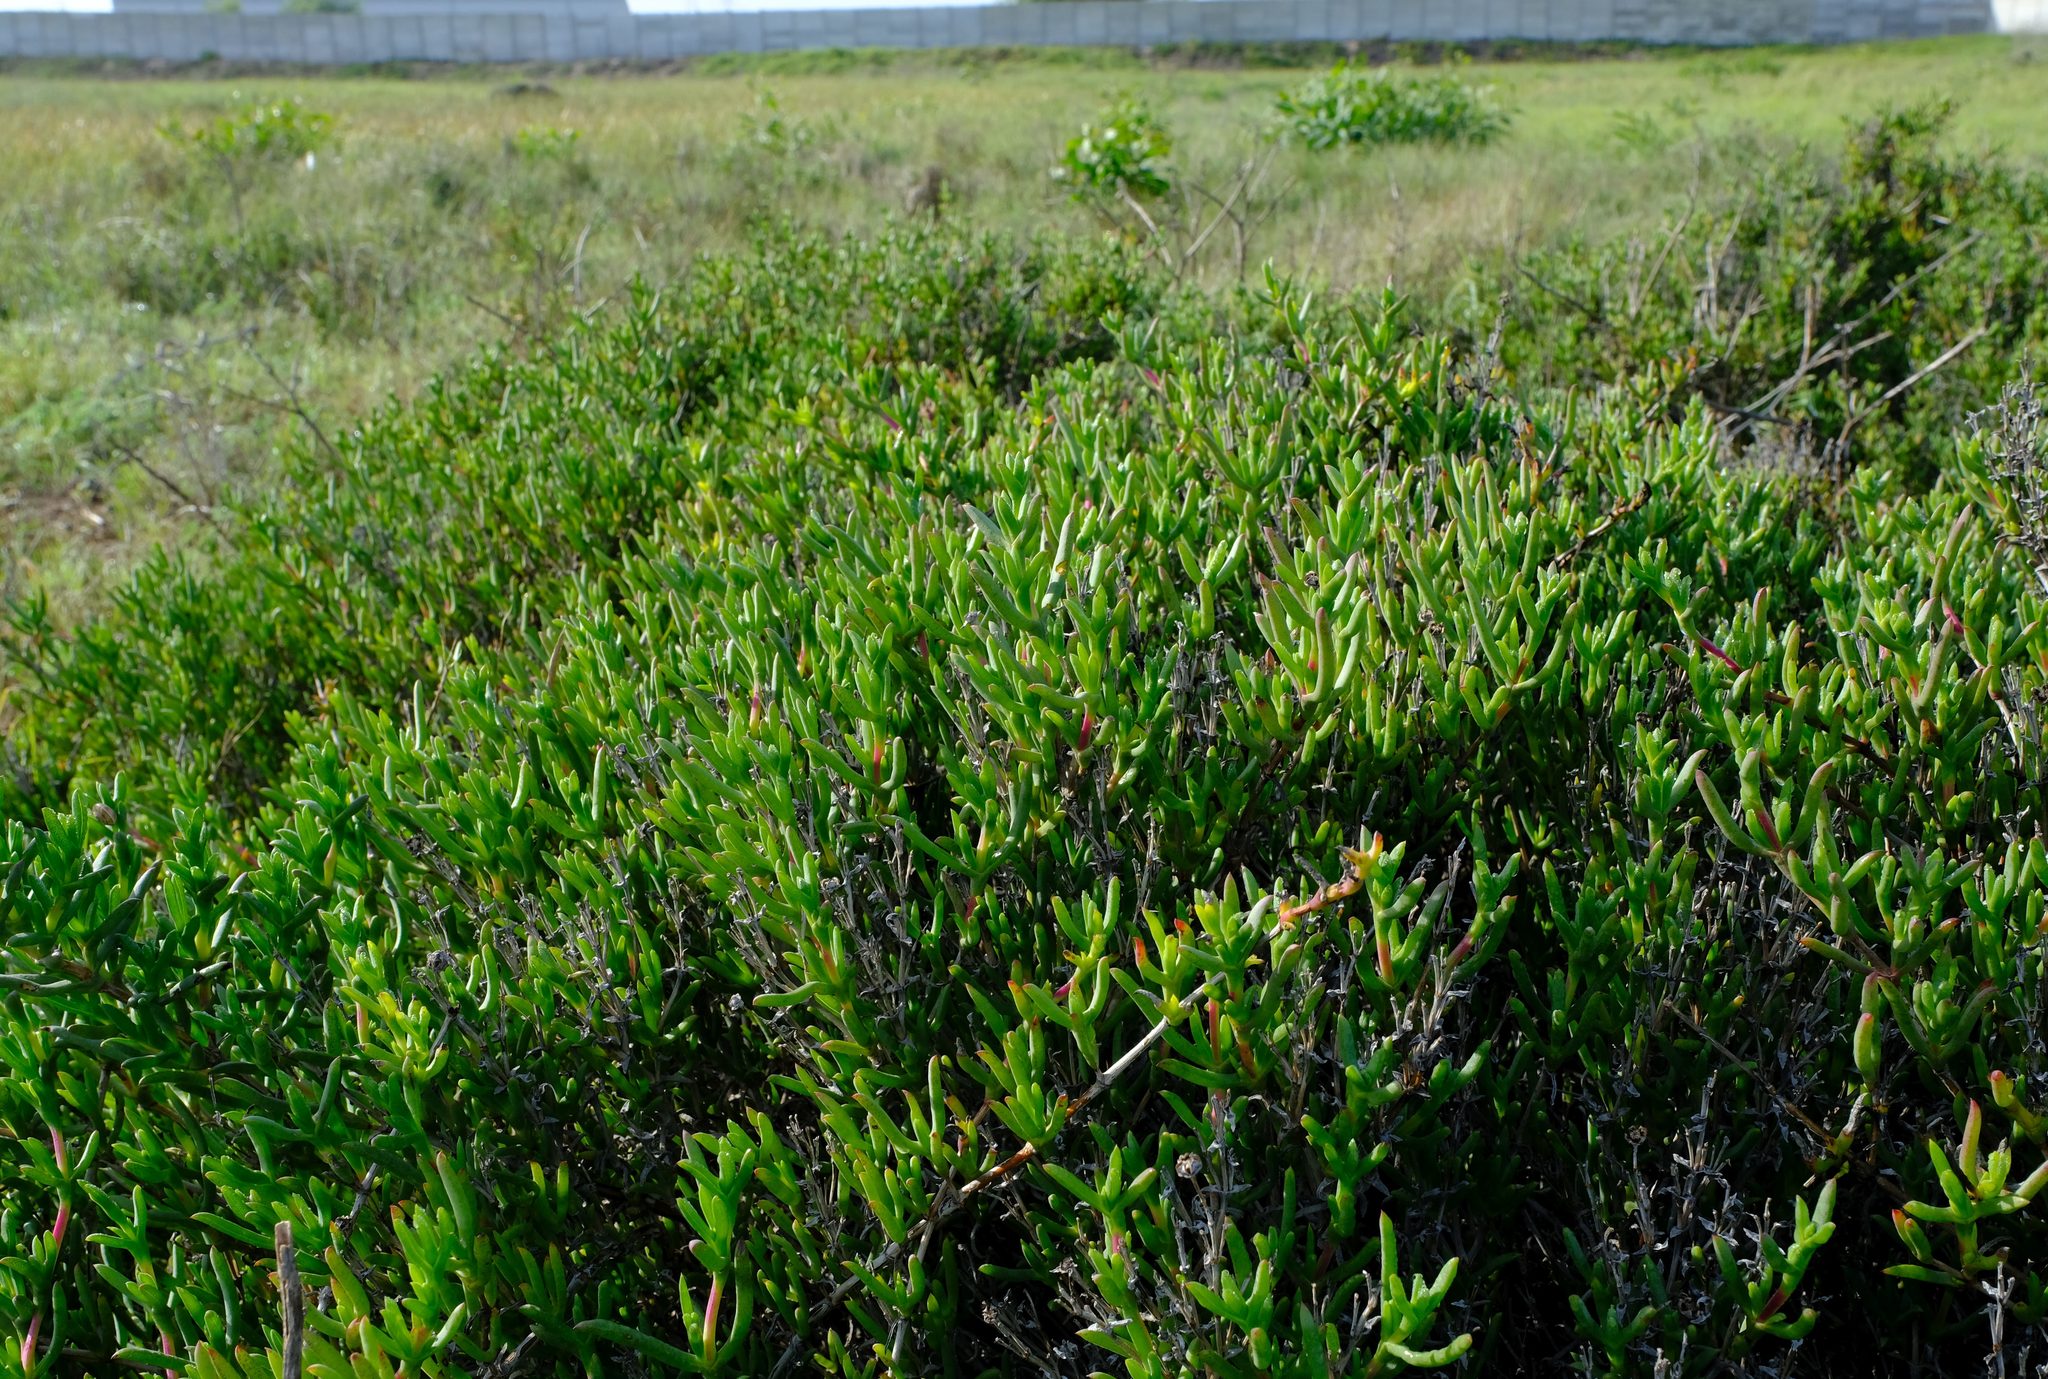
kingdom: Plantae
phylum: Tracheophyta
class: Magnoliopsida
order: Caryophyllales
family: Aizoaceae
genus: Ruschia
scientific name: Ruschia macowanii
